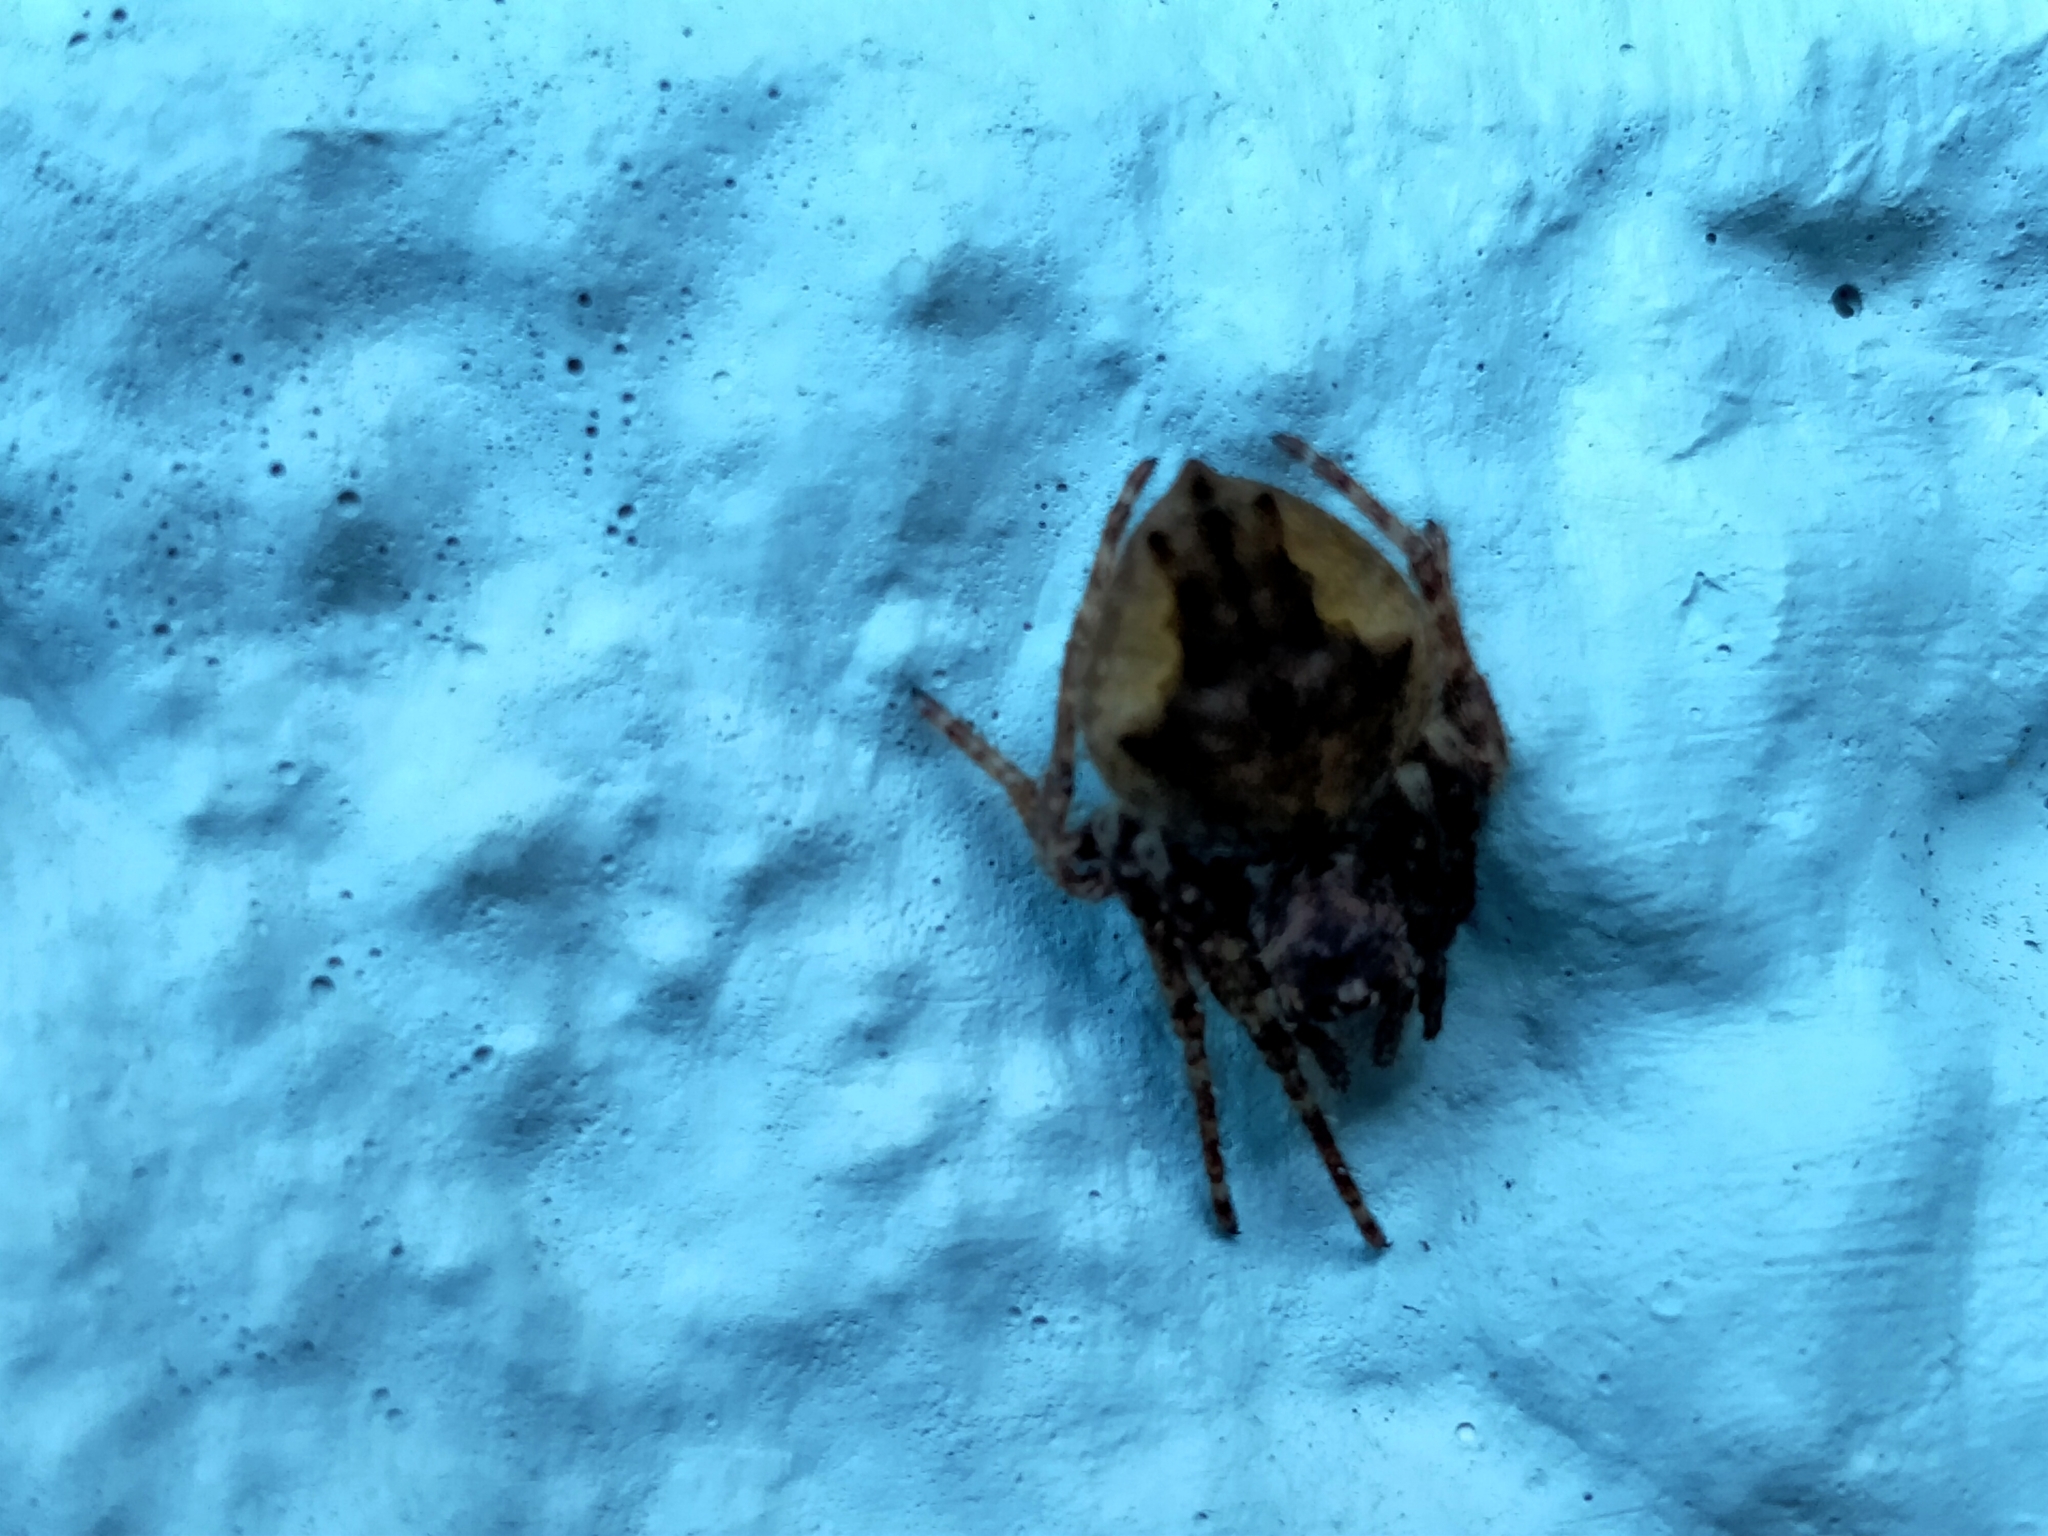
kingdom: Animalia
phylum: Arthropoda
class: Arachnida
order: Araneae
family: Araneidae
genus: Eriophora
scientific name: Eriophora pustulosa
